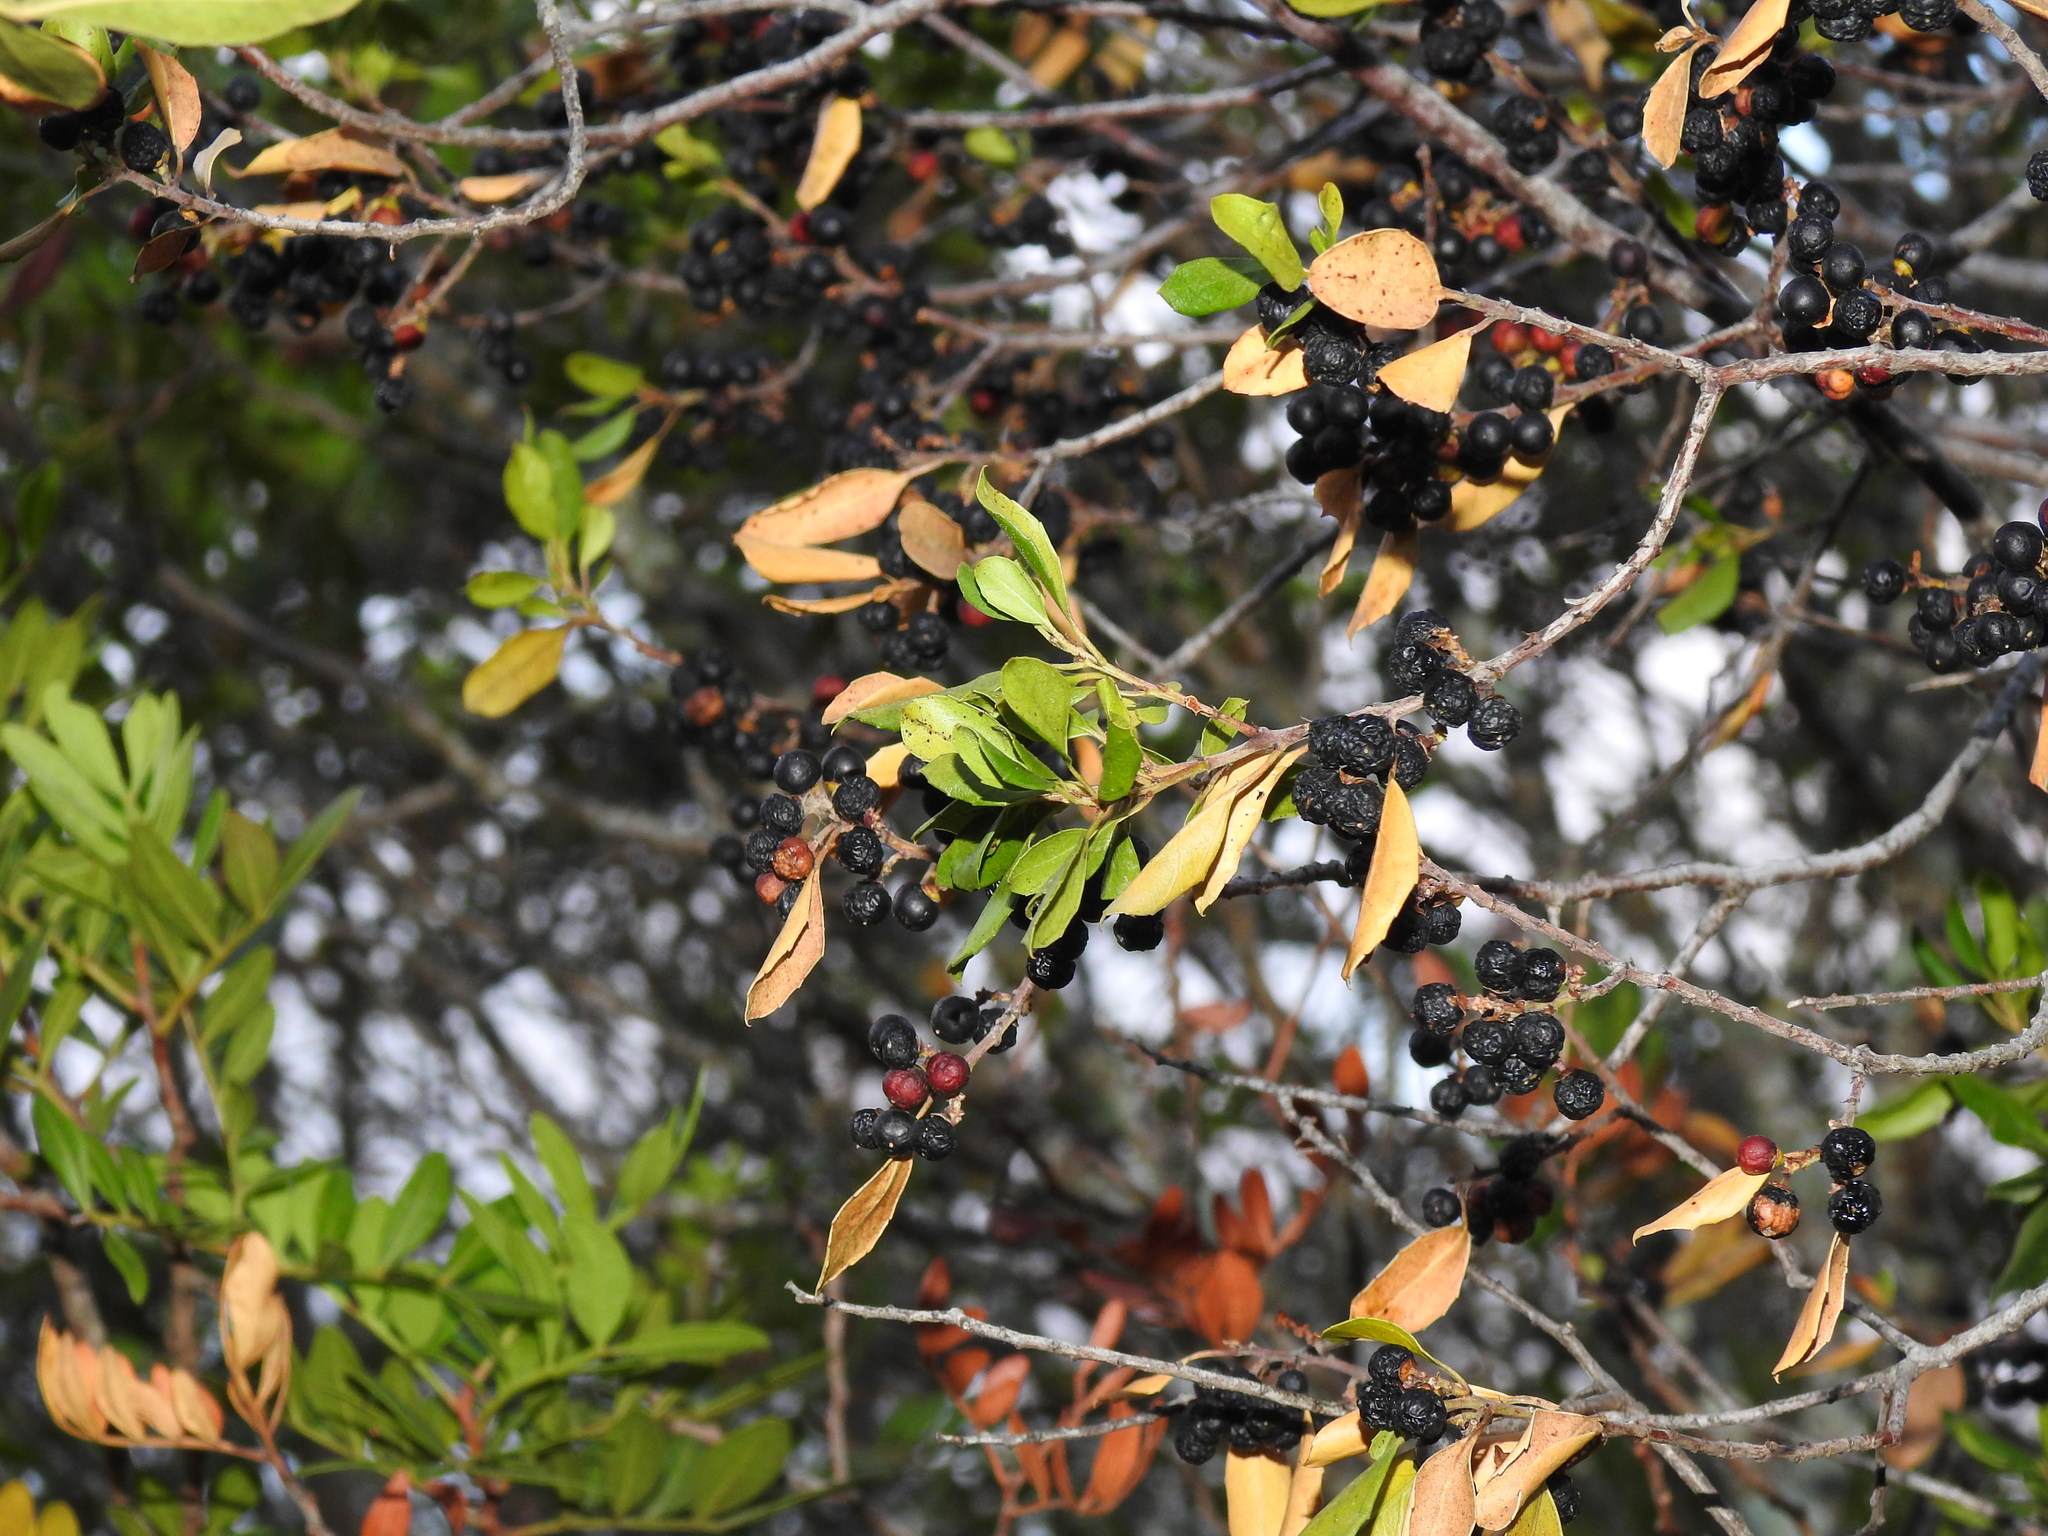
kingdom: Plantae
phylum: Tracheophyta
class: Magnoliopsida
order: Rosales
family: Rhamnaceae
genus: Rhamnus
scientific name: Rhamnus alaternus
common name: Mediterranean buckthorn
